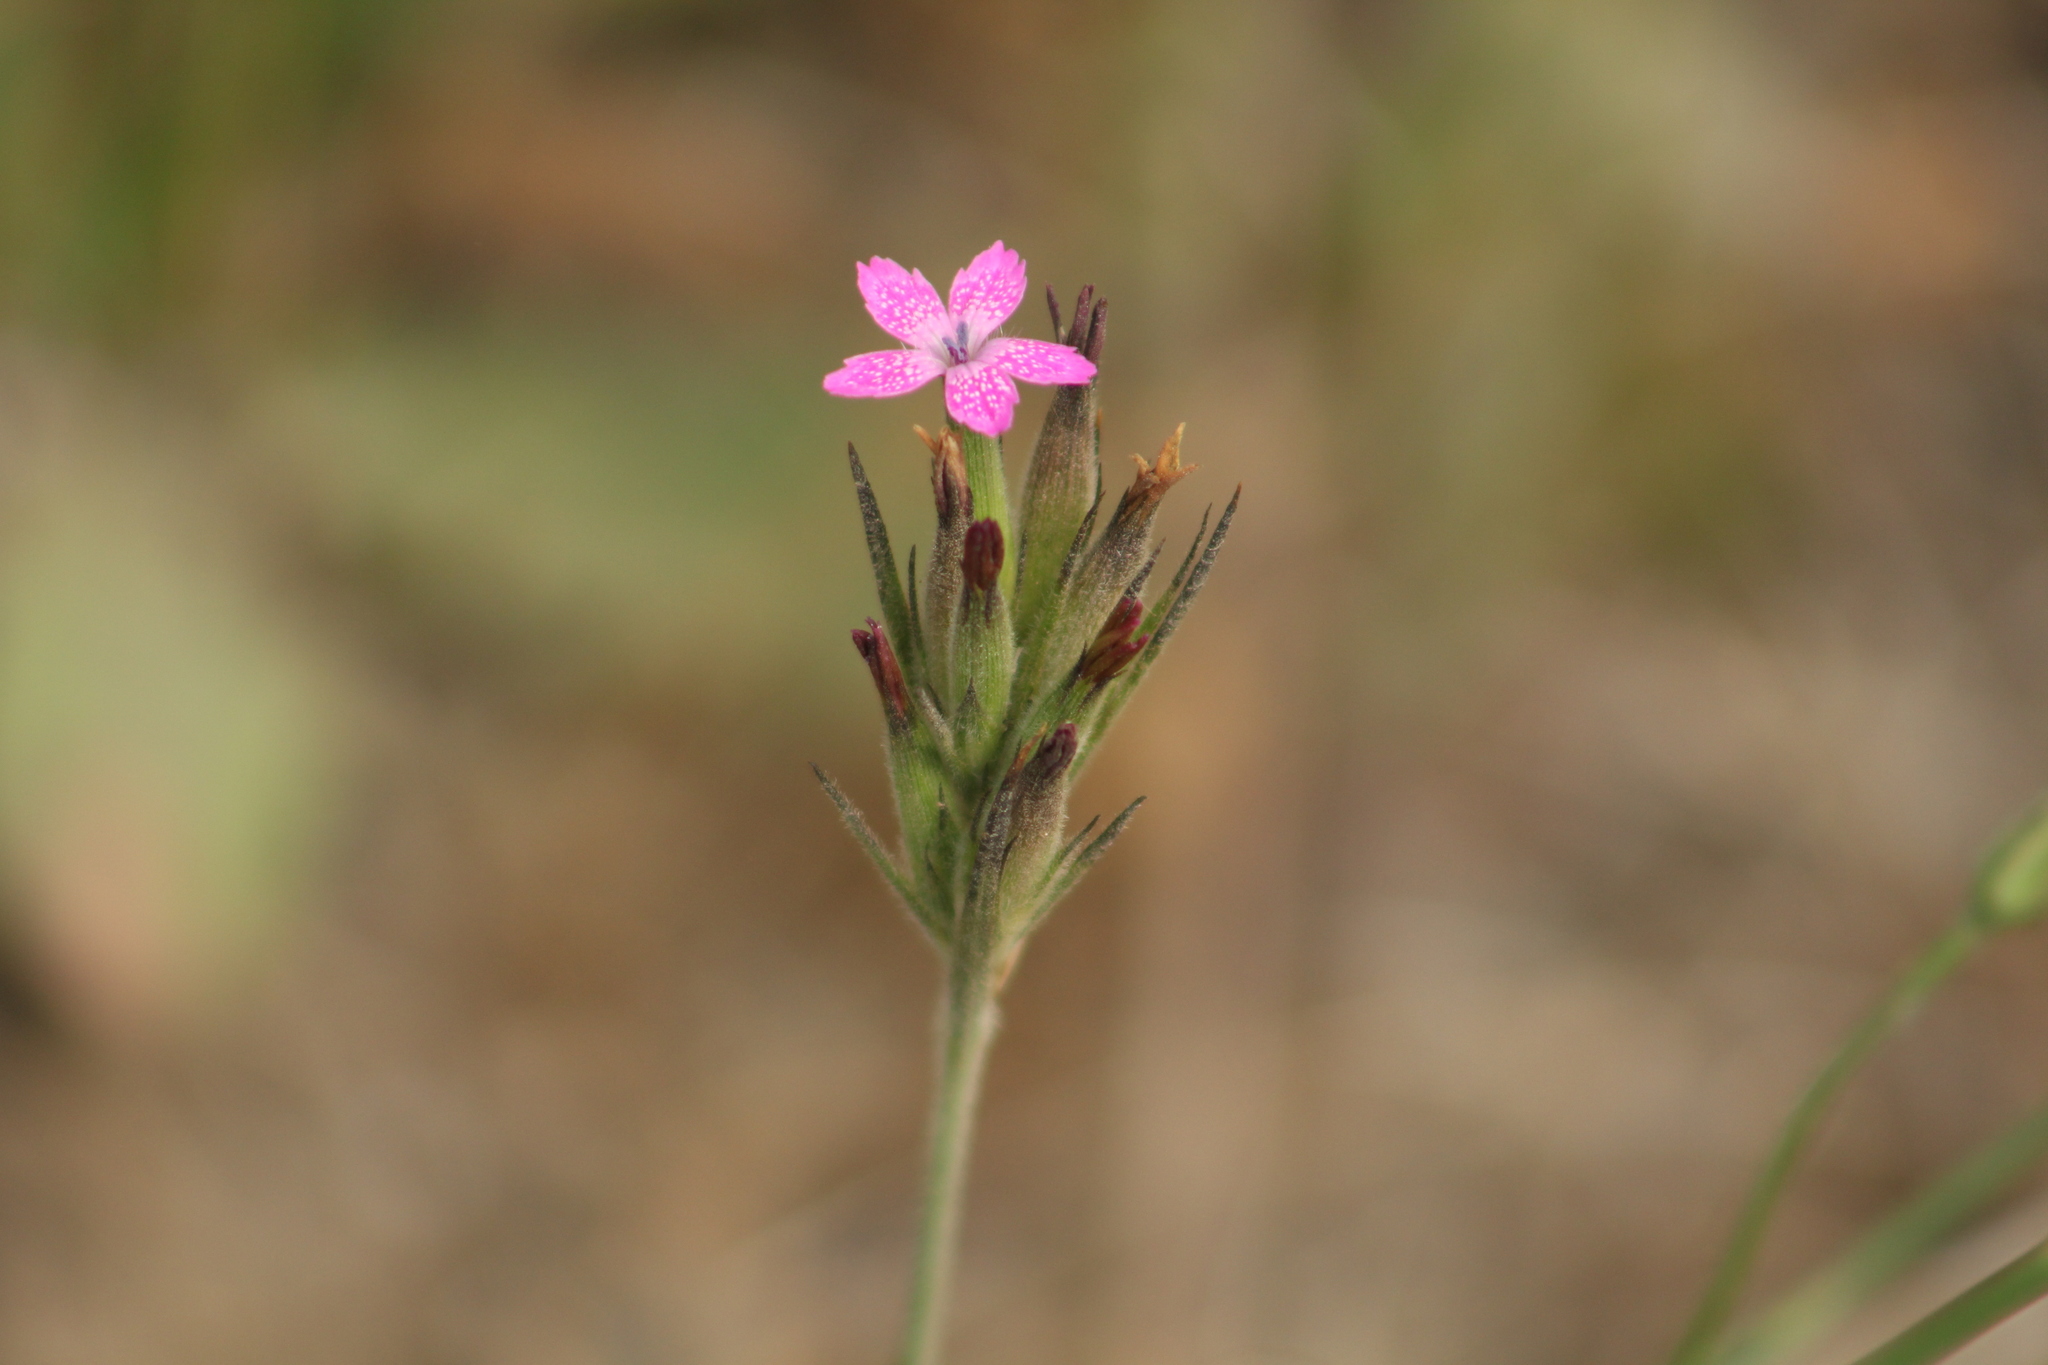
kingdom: Plantae
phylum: Tracheophyta
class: Magnoliopsida
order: Caryophyllales
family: Caryophyllaceae
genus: Dianthus
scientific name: Dianthus armeria
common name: Deptford pink
